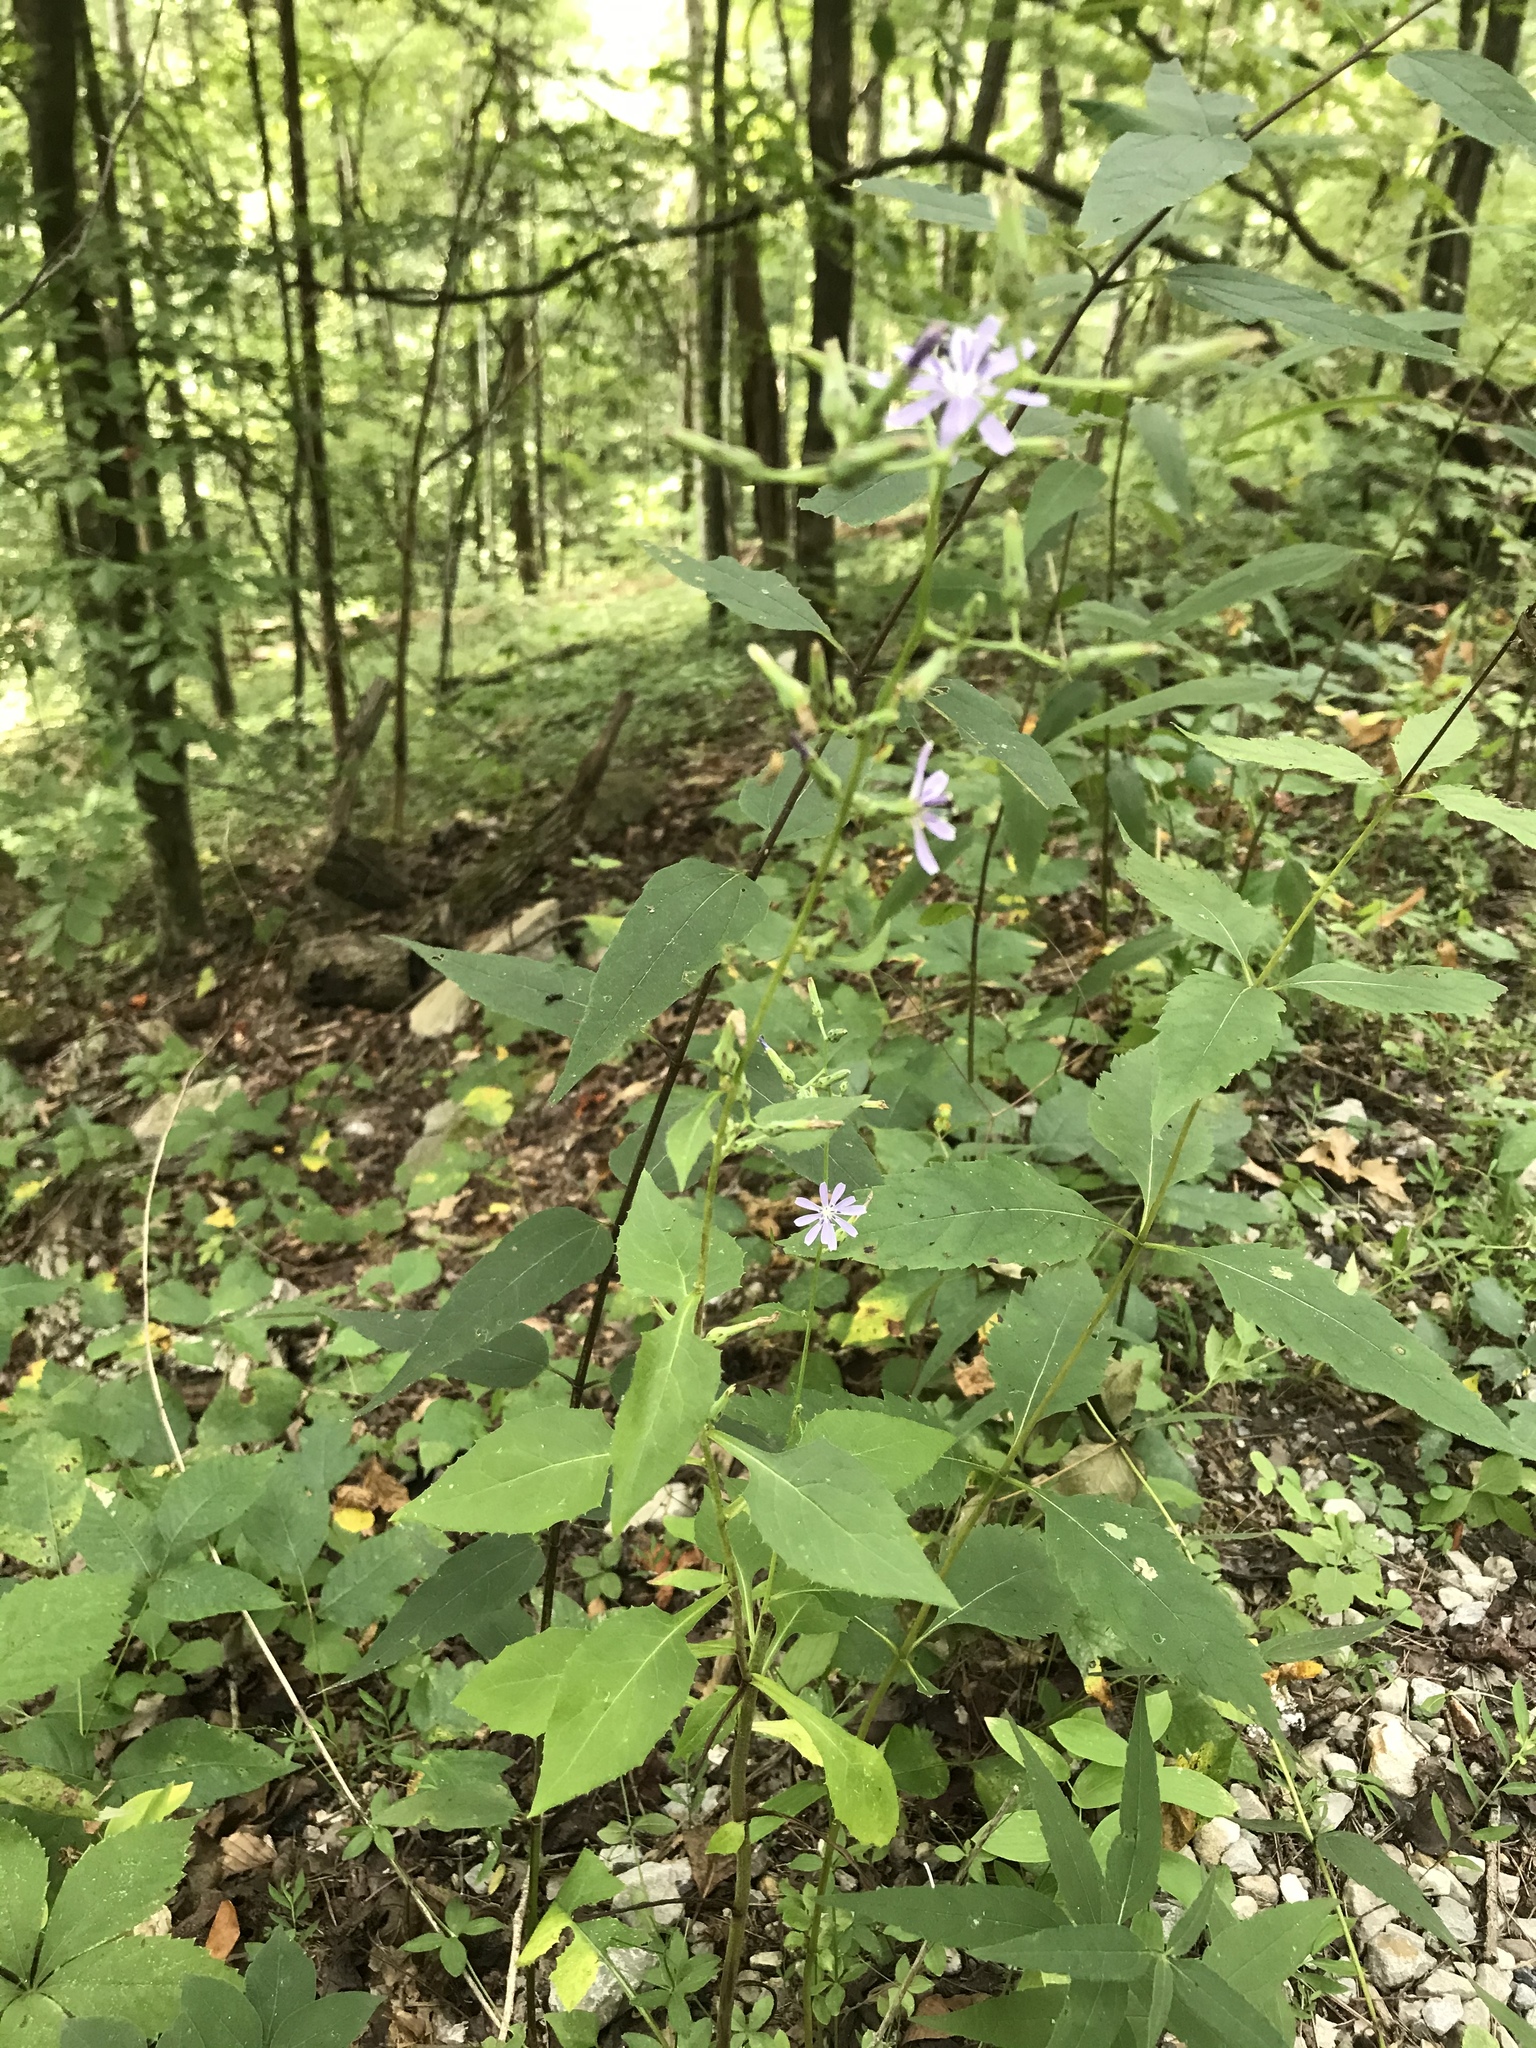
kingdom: Plantae
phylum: Tracheophyta
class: Magnoliopsida
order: Asterales
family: Asteraceae
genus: Lactuca
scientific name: Lactuca floridana
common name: Woodland lettuce
